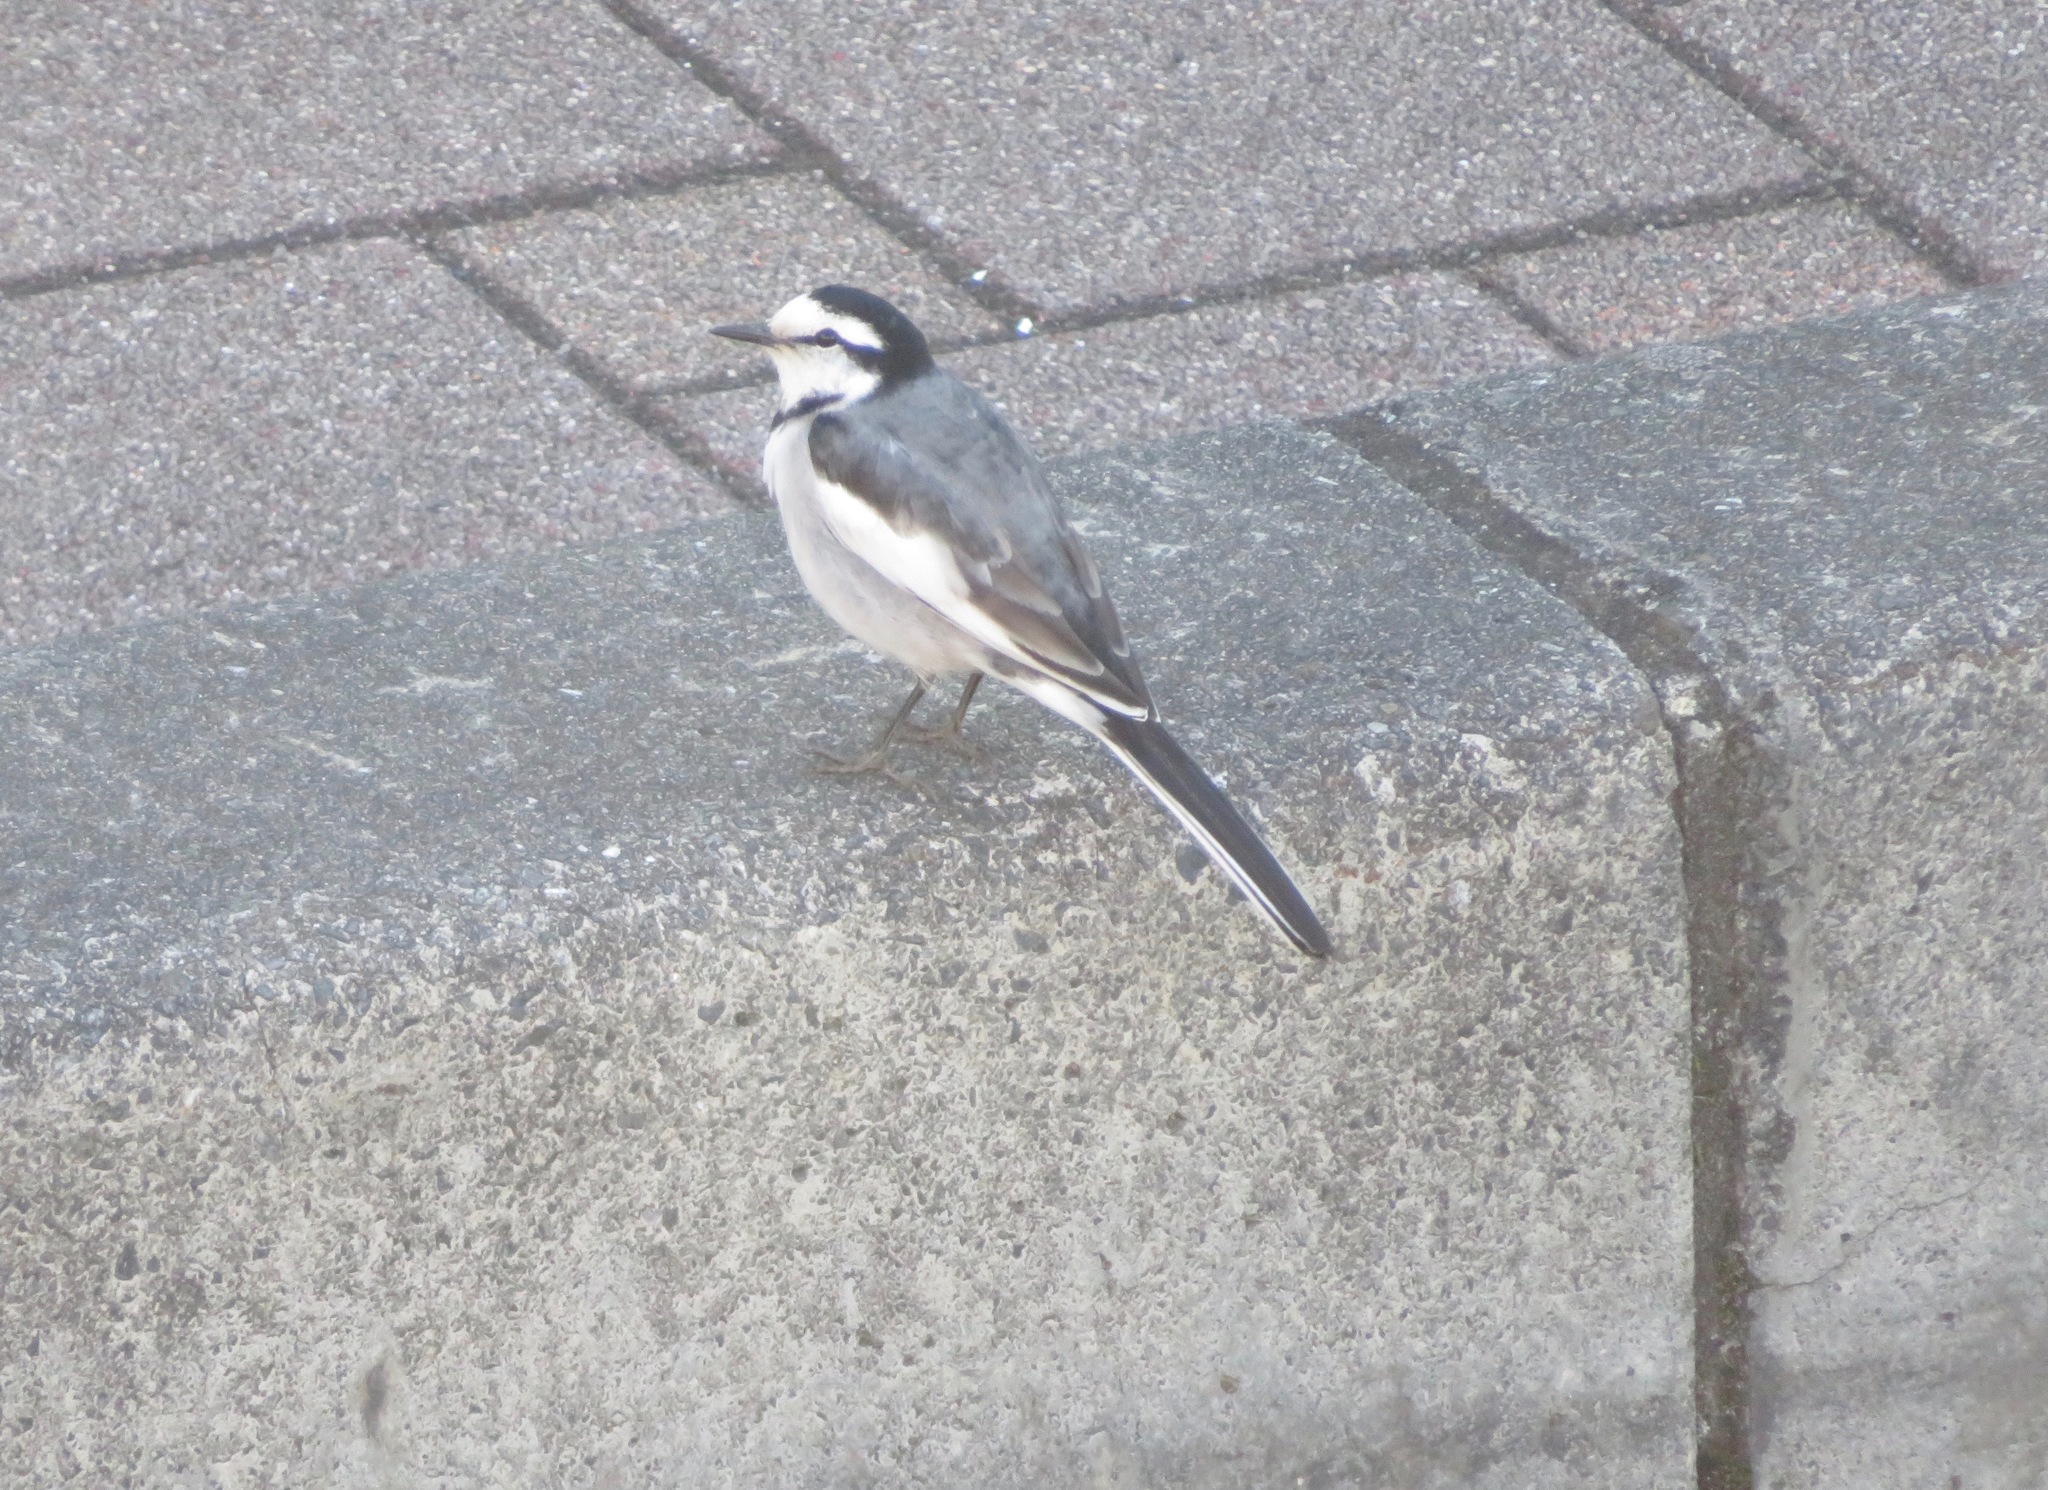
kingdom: Animalia
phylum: Chordata
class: Aves
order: Passeriformes
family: Motacillidae
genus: Motacilla
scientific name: Motacilla alba
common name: White wagtail
